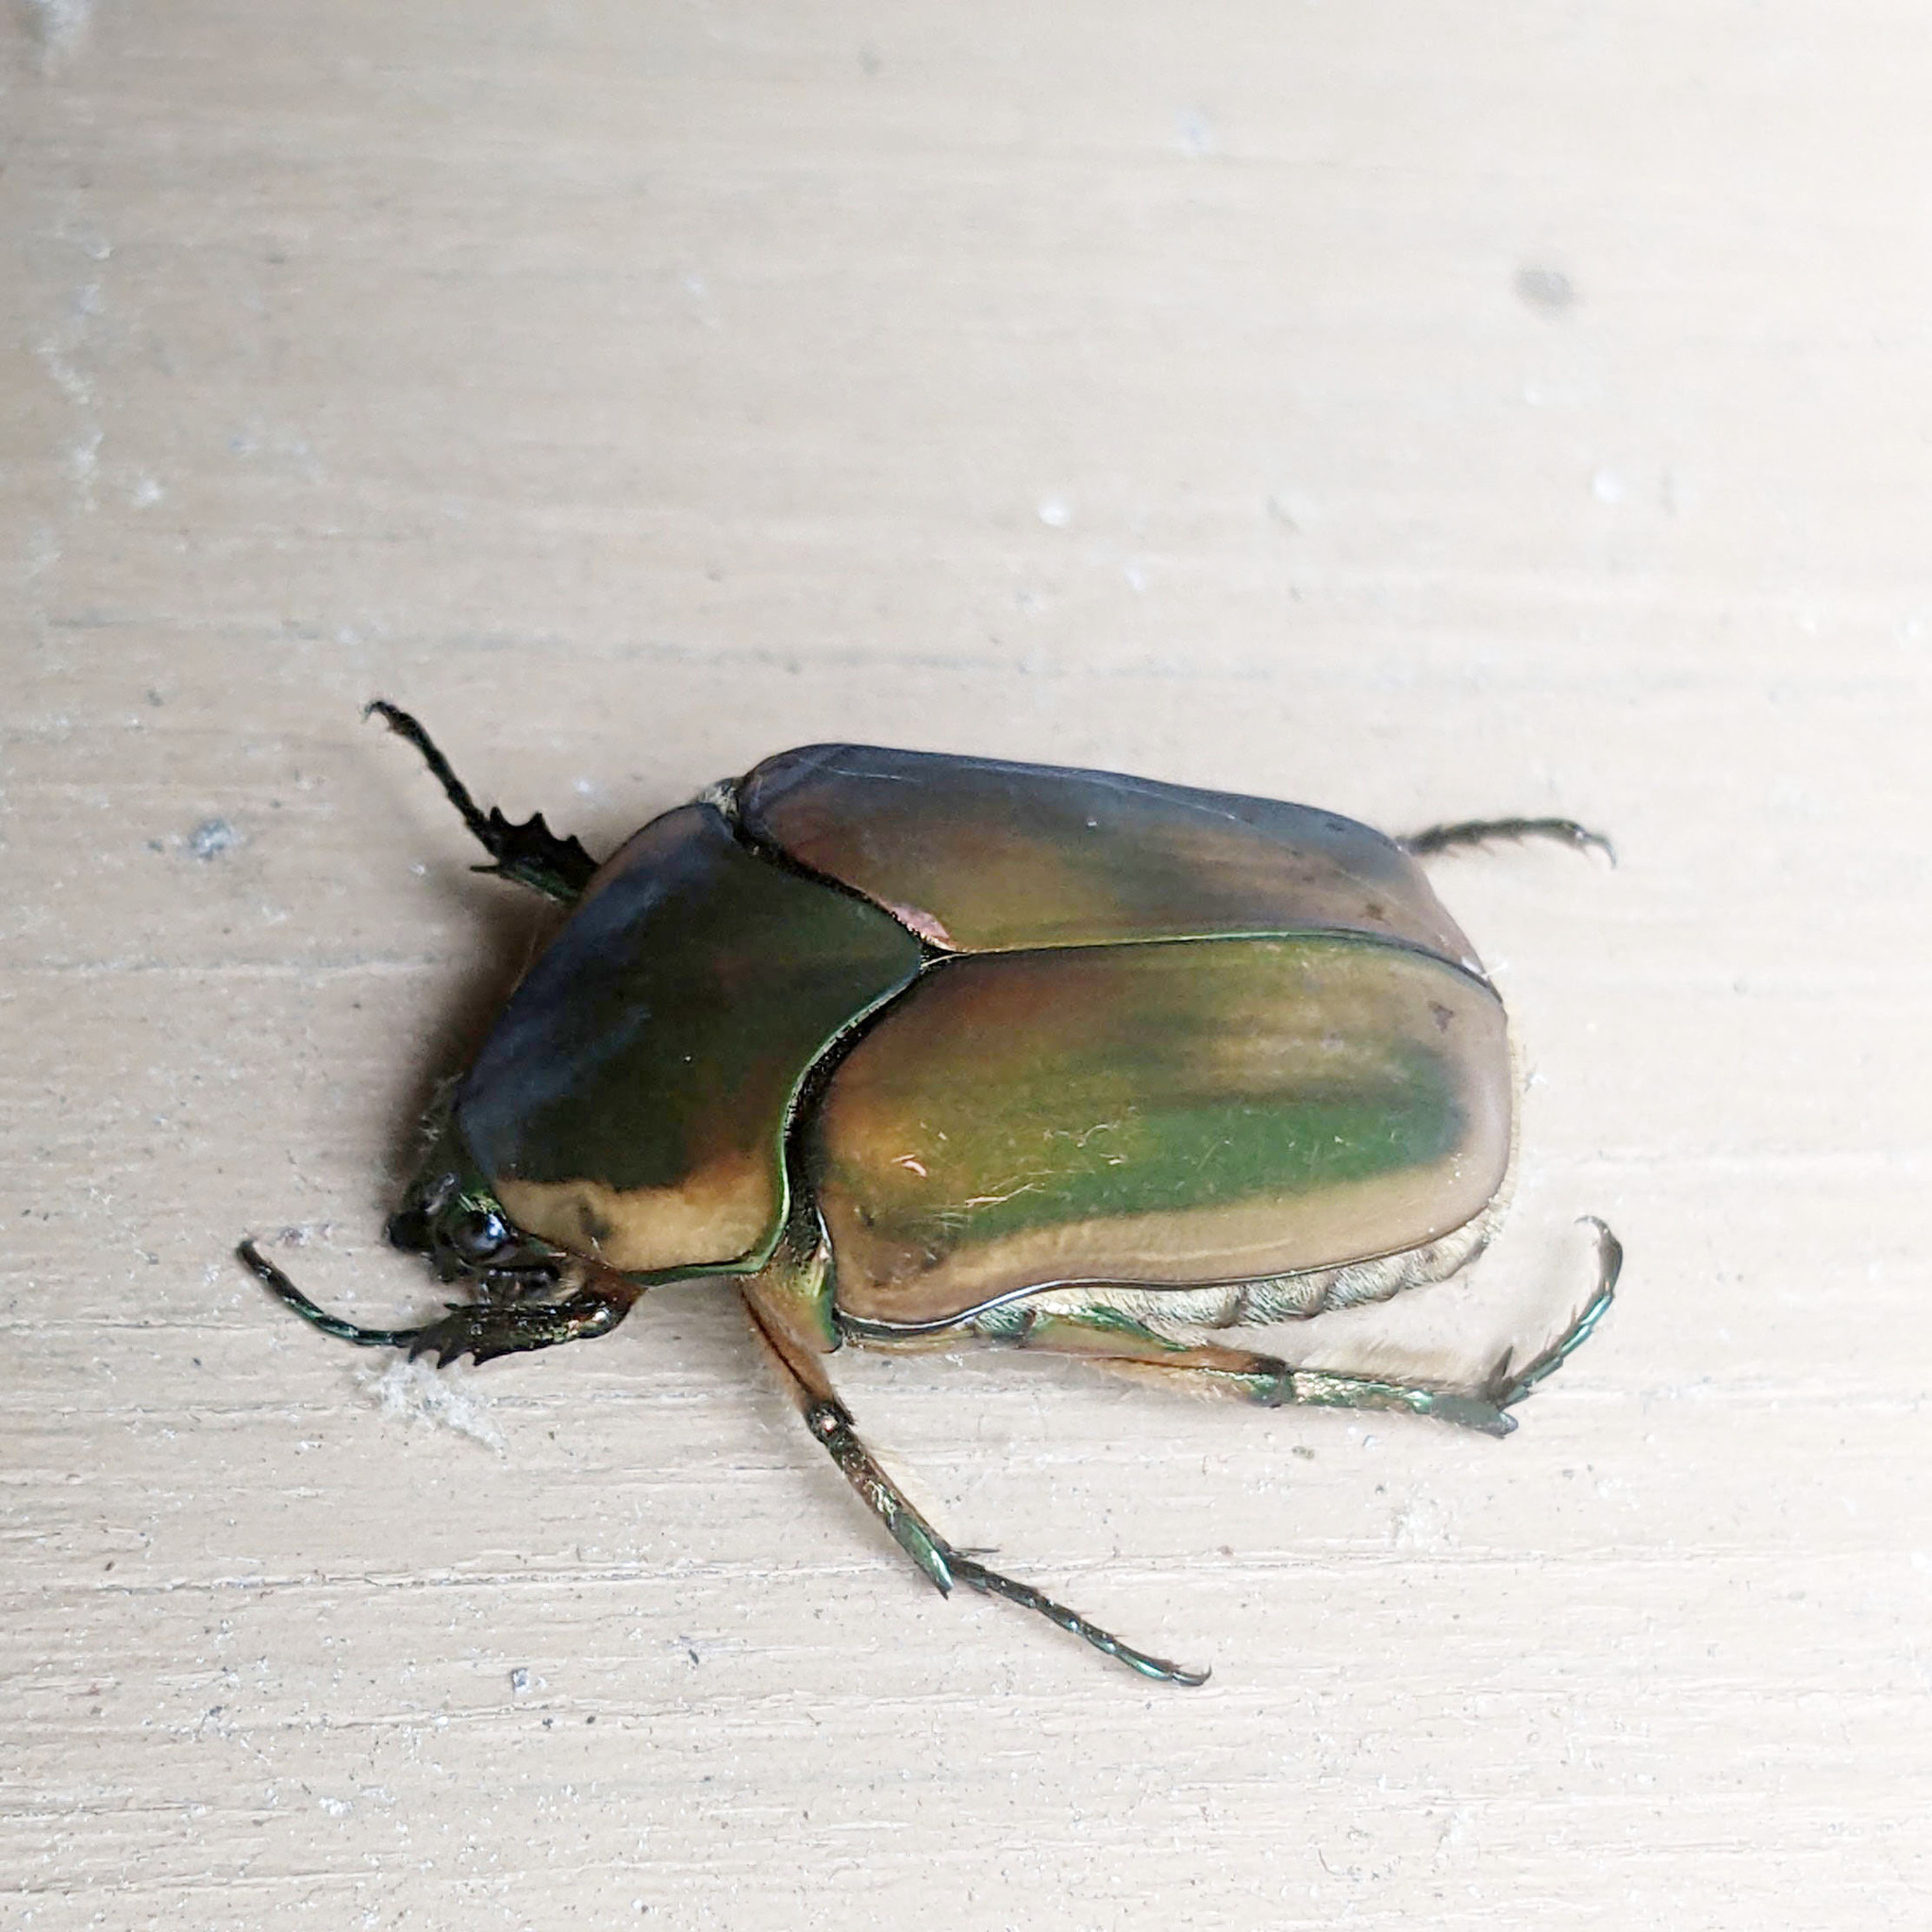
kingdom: Animalia
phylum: Arthropoda
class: Insecta
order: Coleoptera
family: Scarabaeidae
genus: Cotinis
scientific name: Cotinis nitida
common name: Common green june beetle
